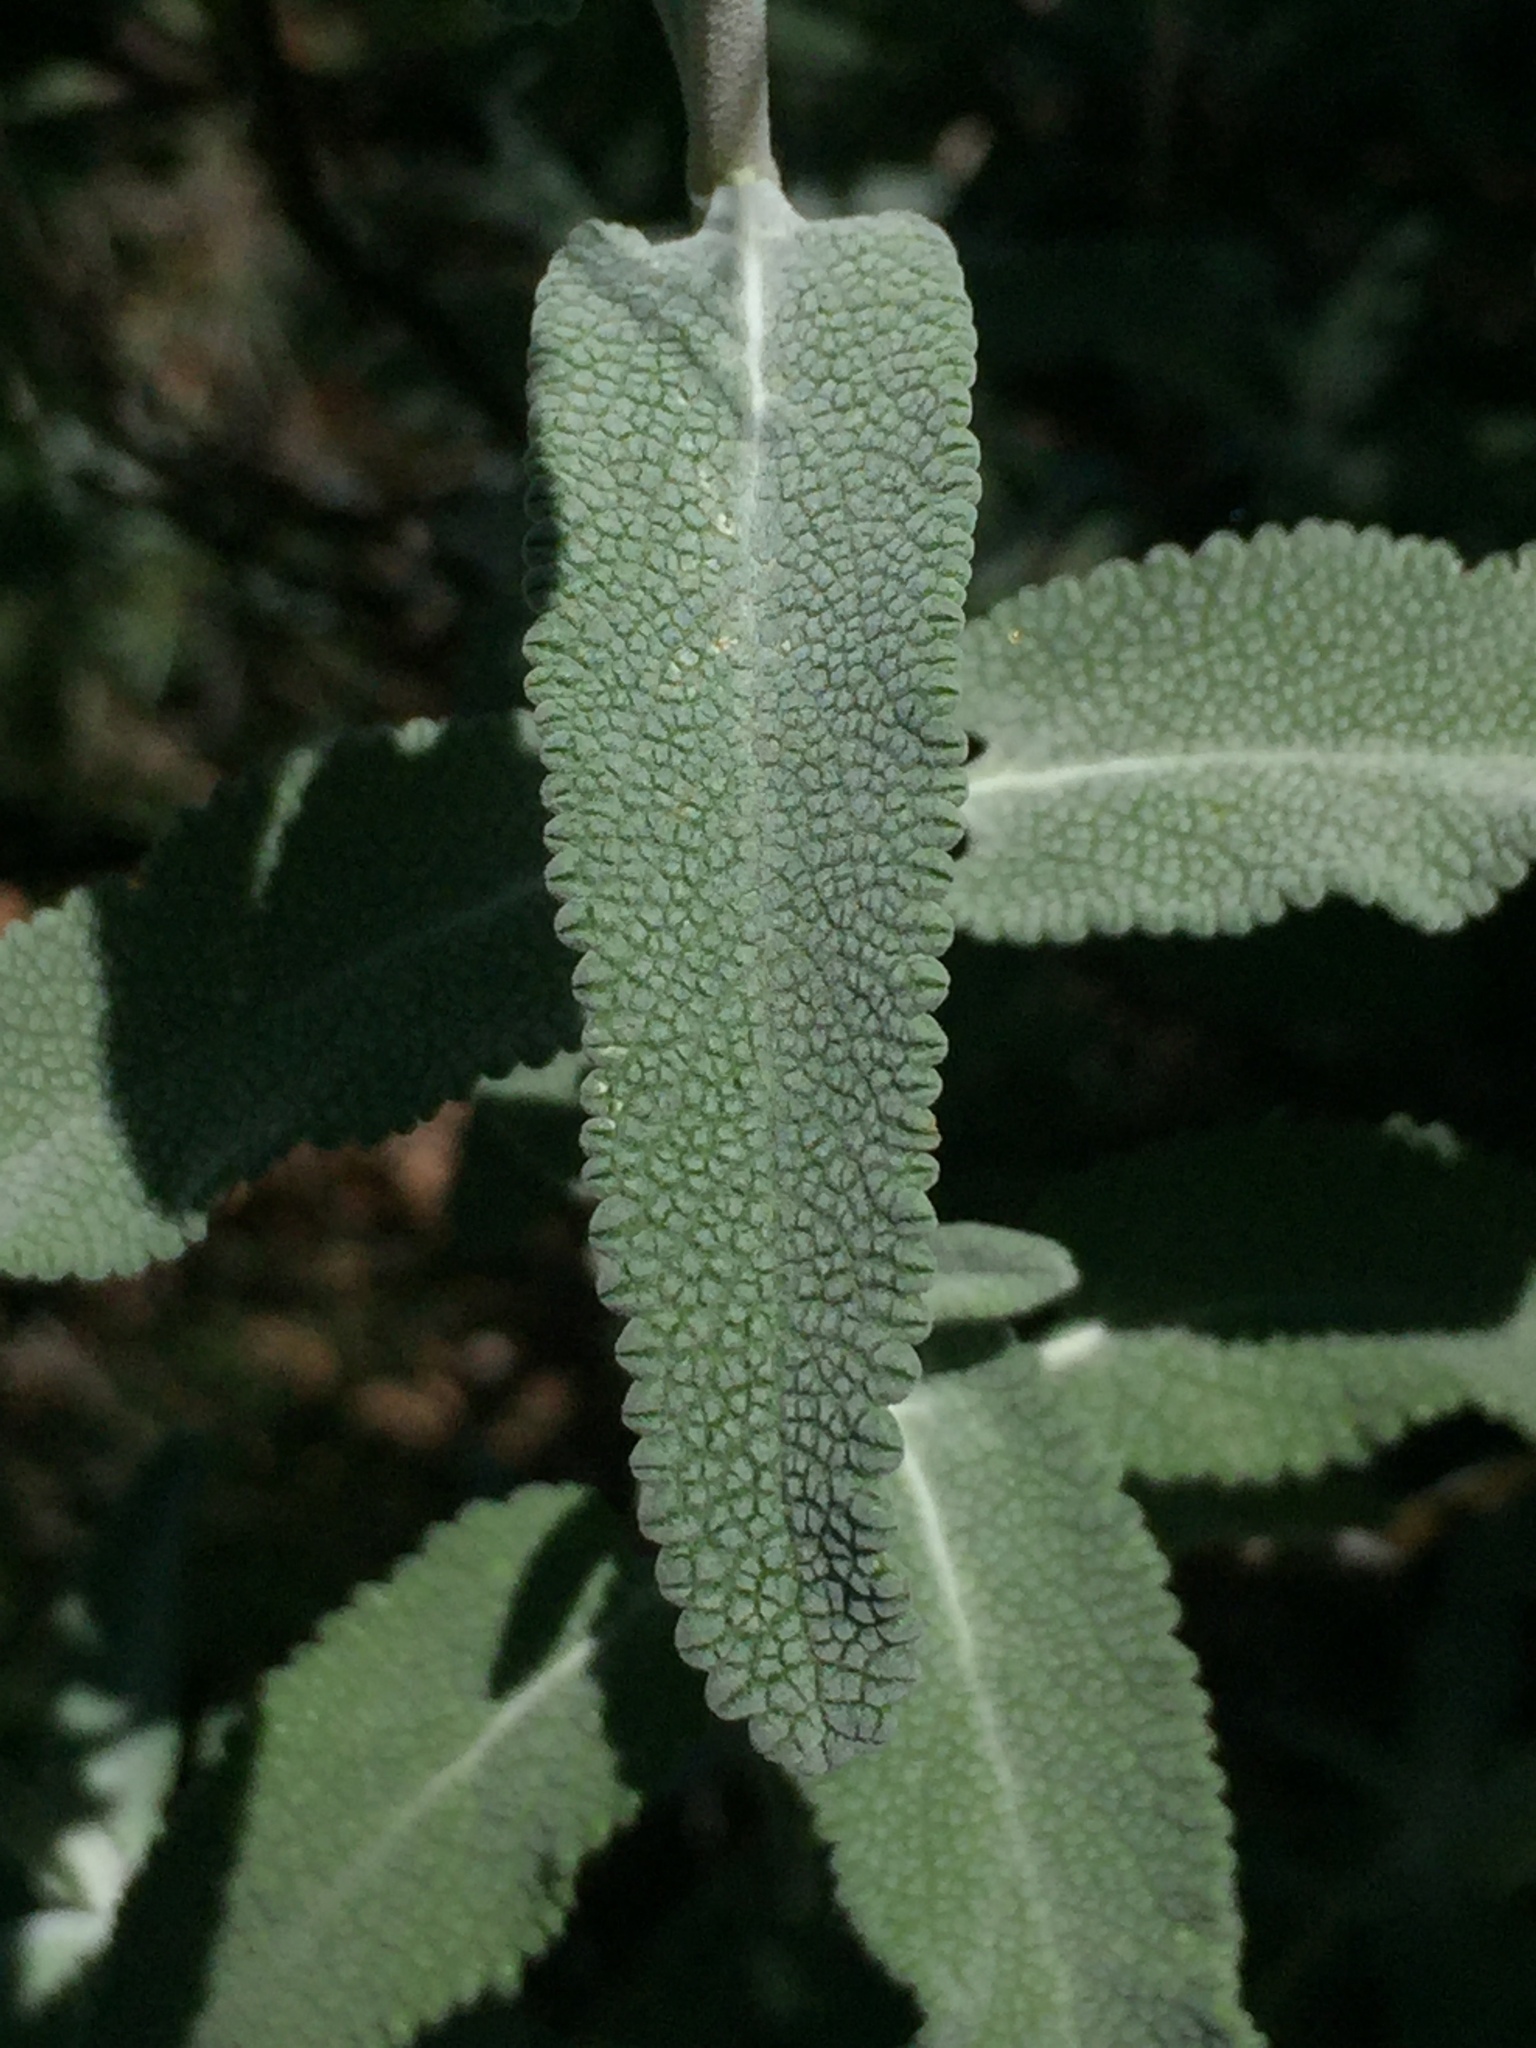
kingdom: Plantae
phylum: Tracheophyta
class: Magnoliopsida
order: Lamiales
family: Lamiaceae
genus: Salvia
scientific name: Salvia leucophylla
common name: Purple sage
